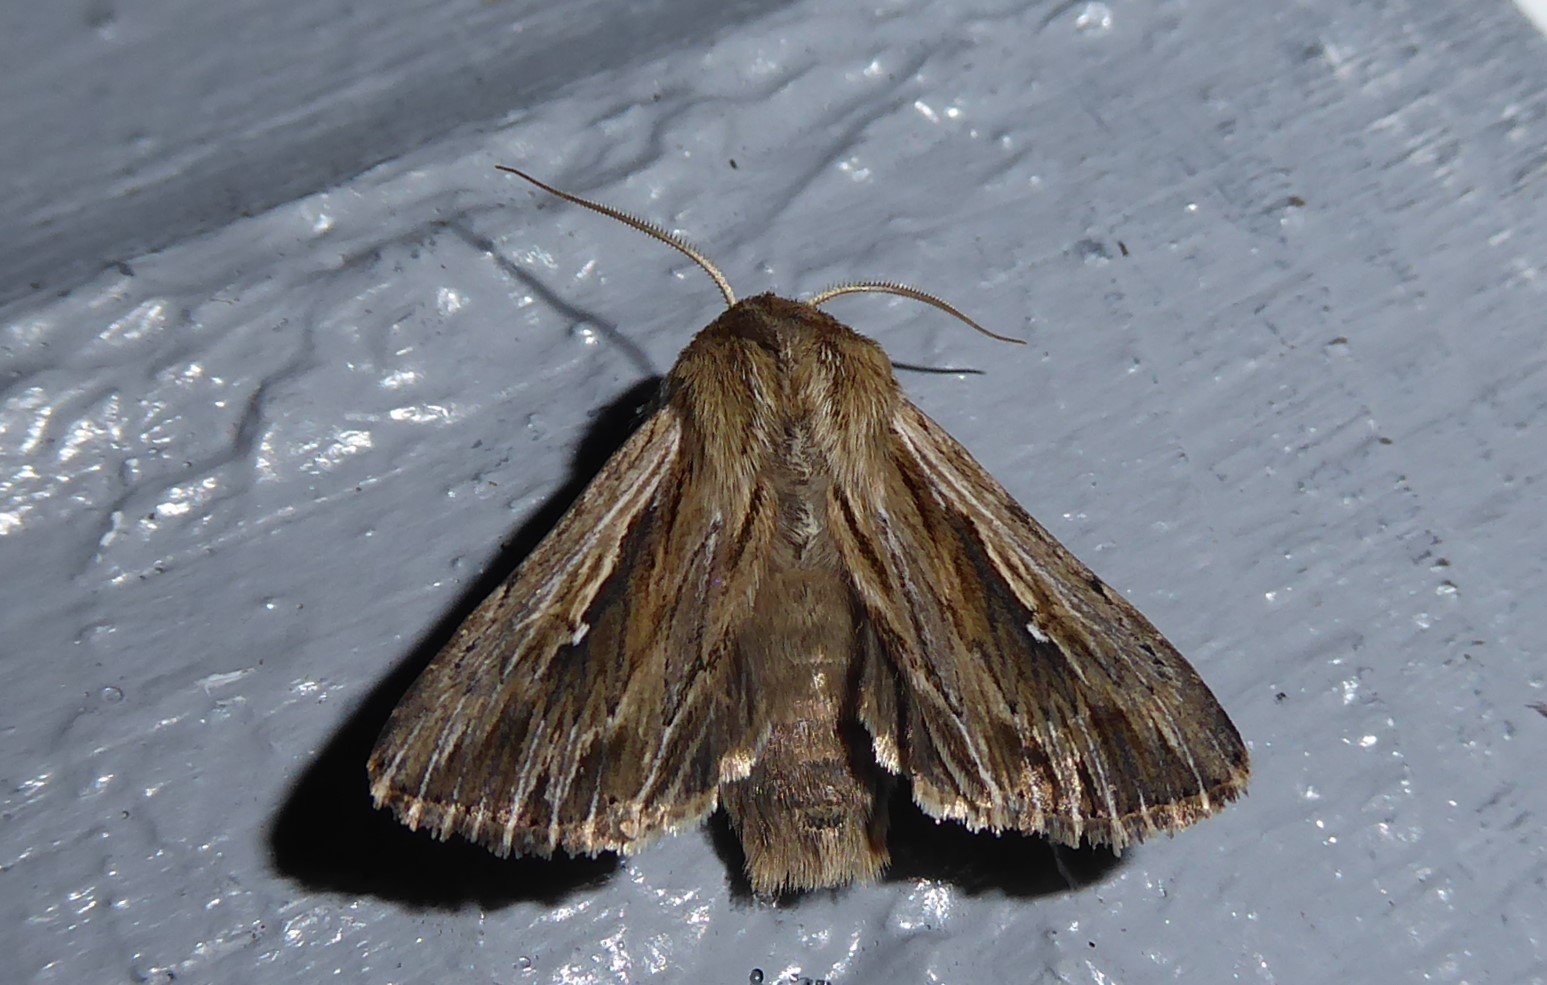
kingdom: Animalia
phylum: Arthropoda
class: Insecta
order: Lepidoptera
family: Noctuidae
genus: Persectania
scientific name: Persectania aversa
